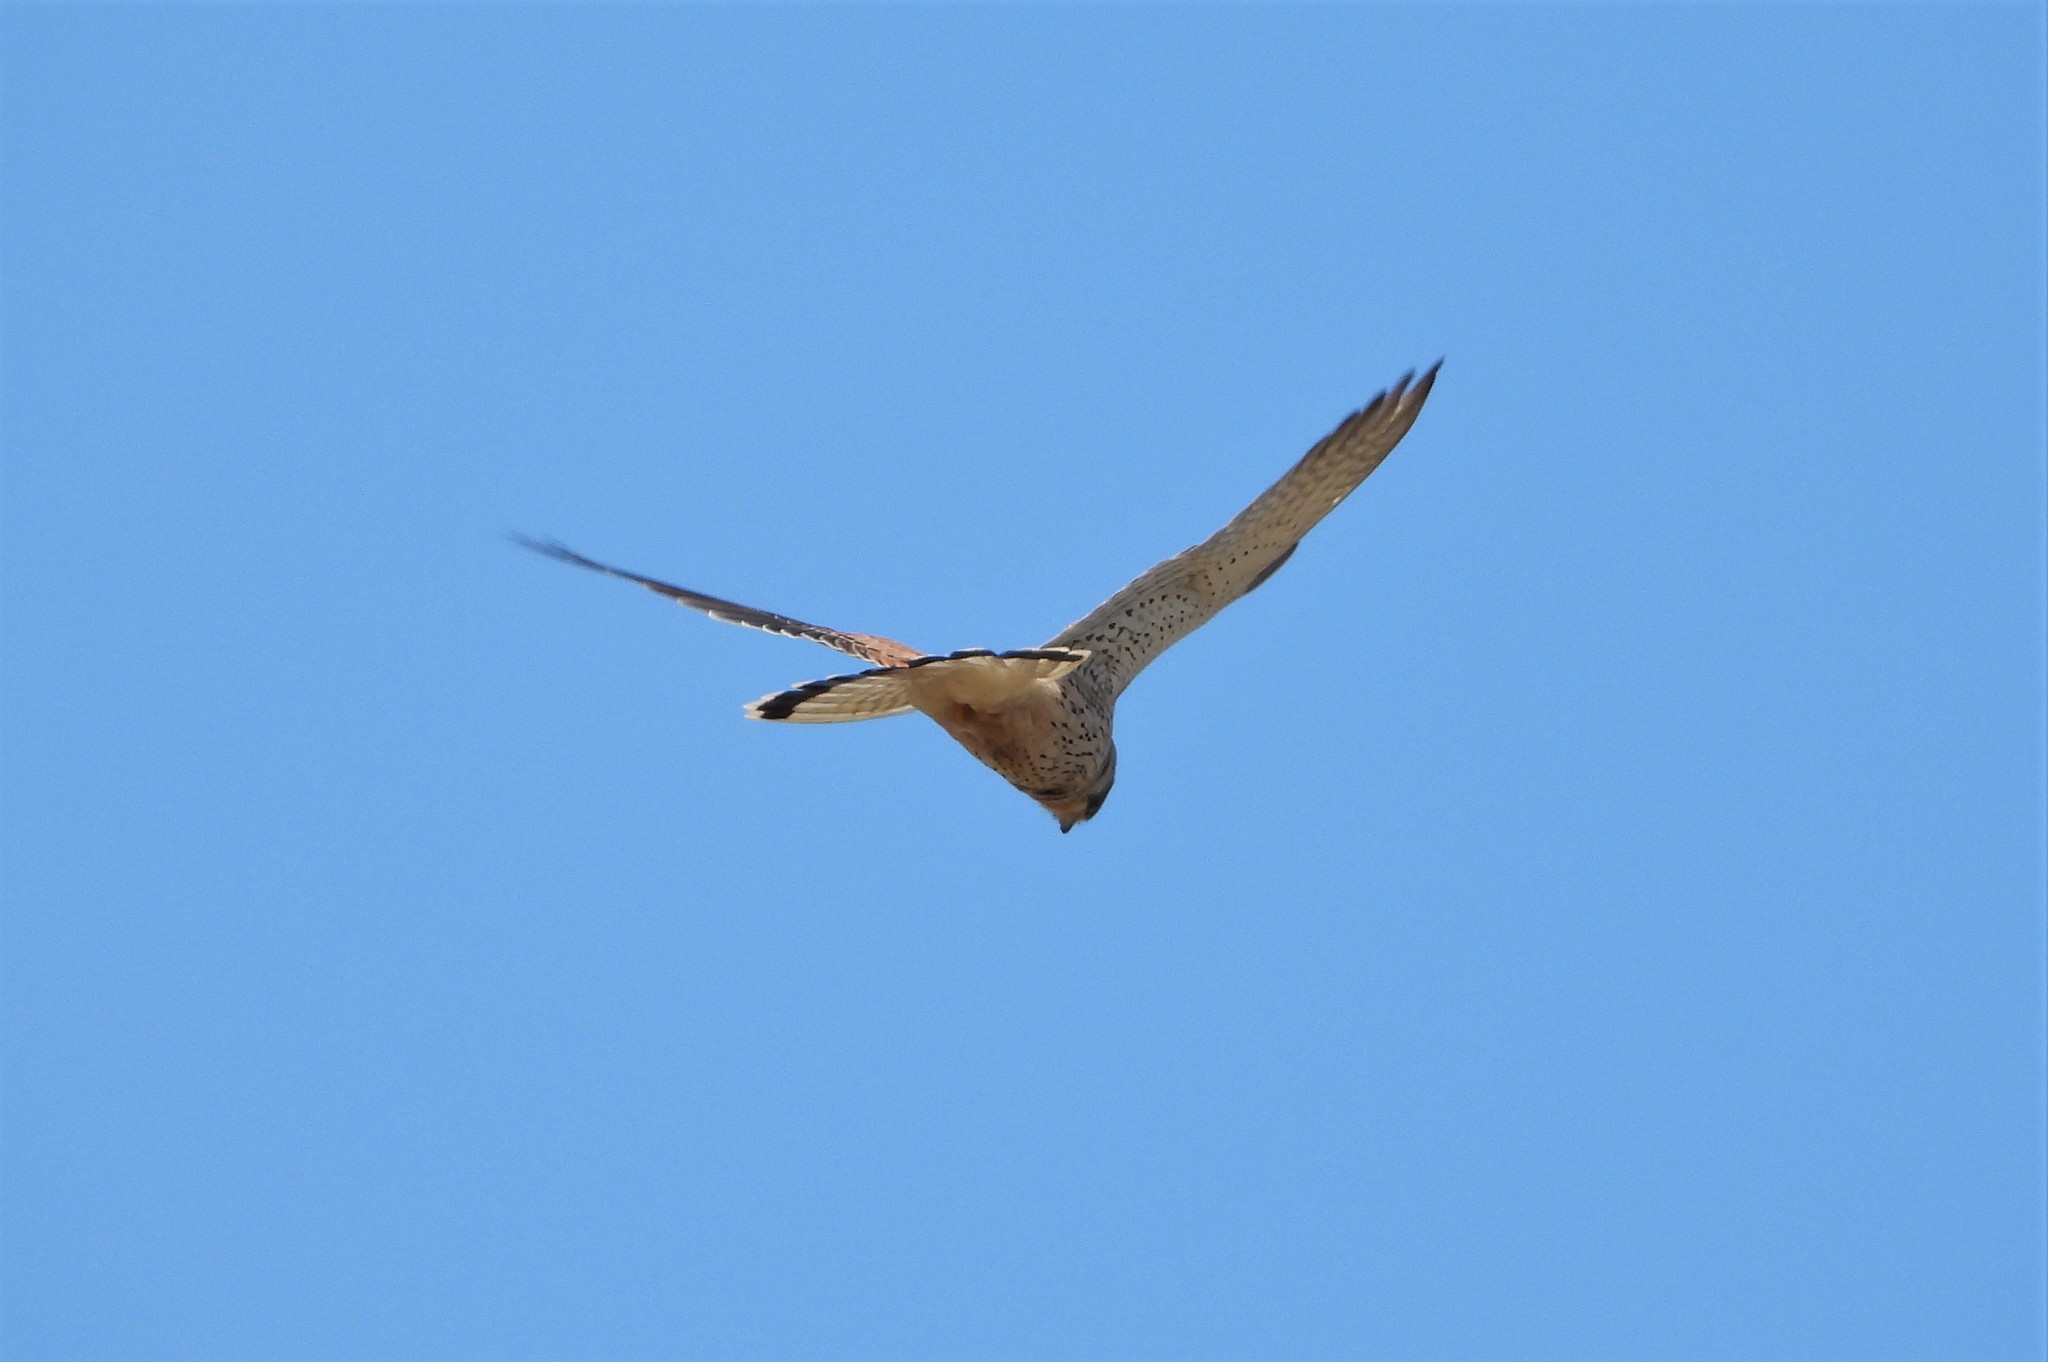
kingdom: Animalia
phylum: Chordata
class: Aves
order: Falconiformes
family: Falconidae
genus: Falco
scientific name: Falco tinnunculus
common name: Common kestrel
